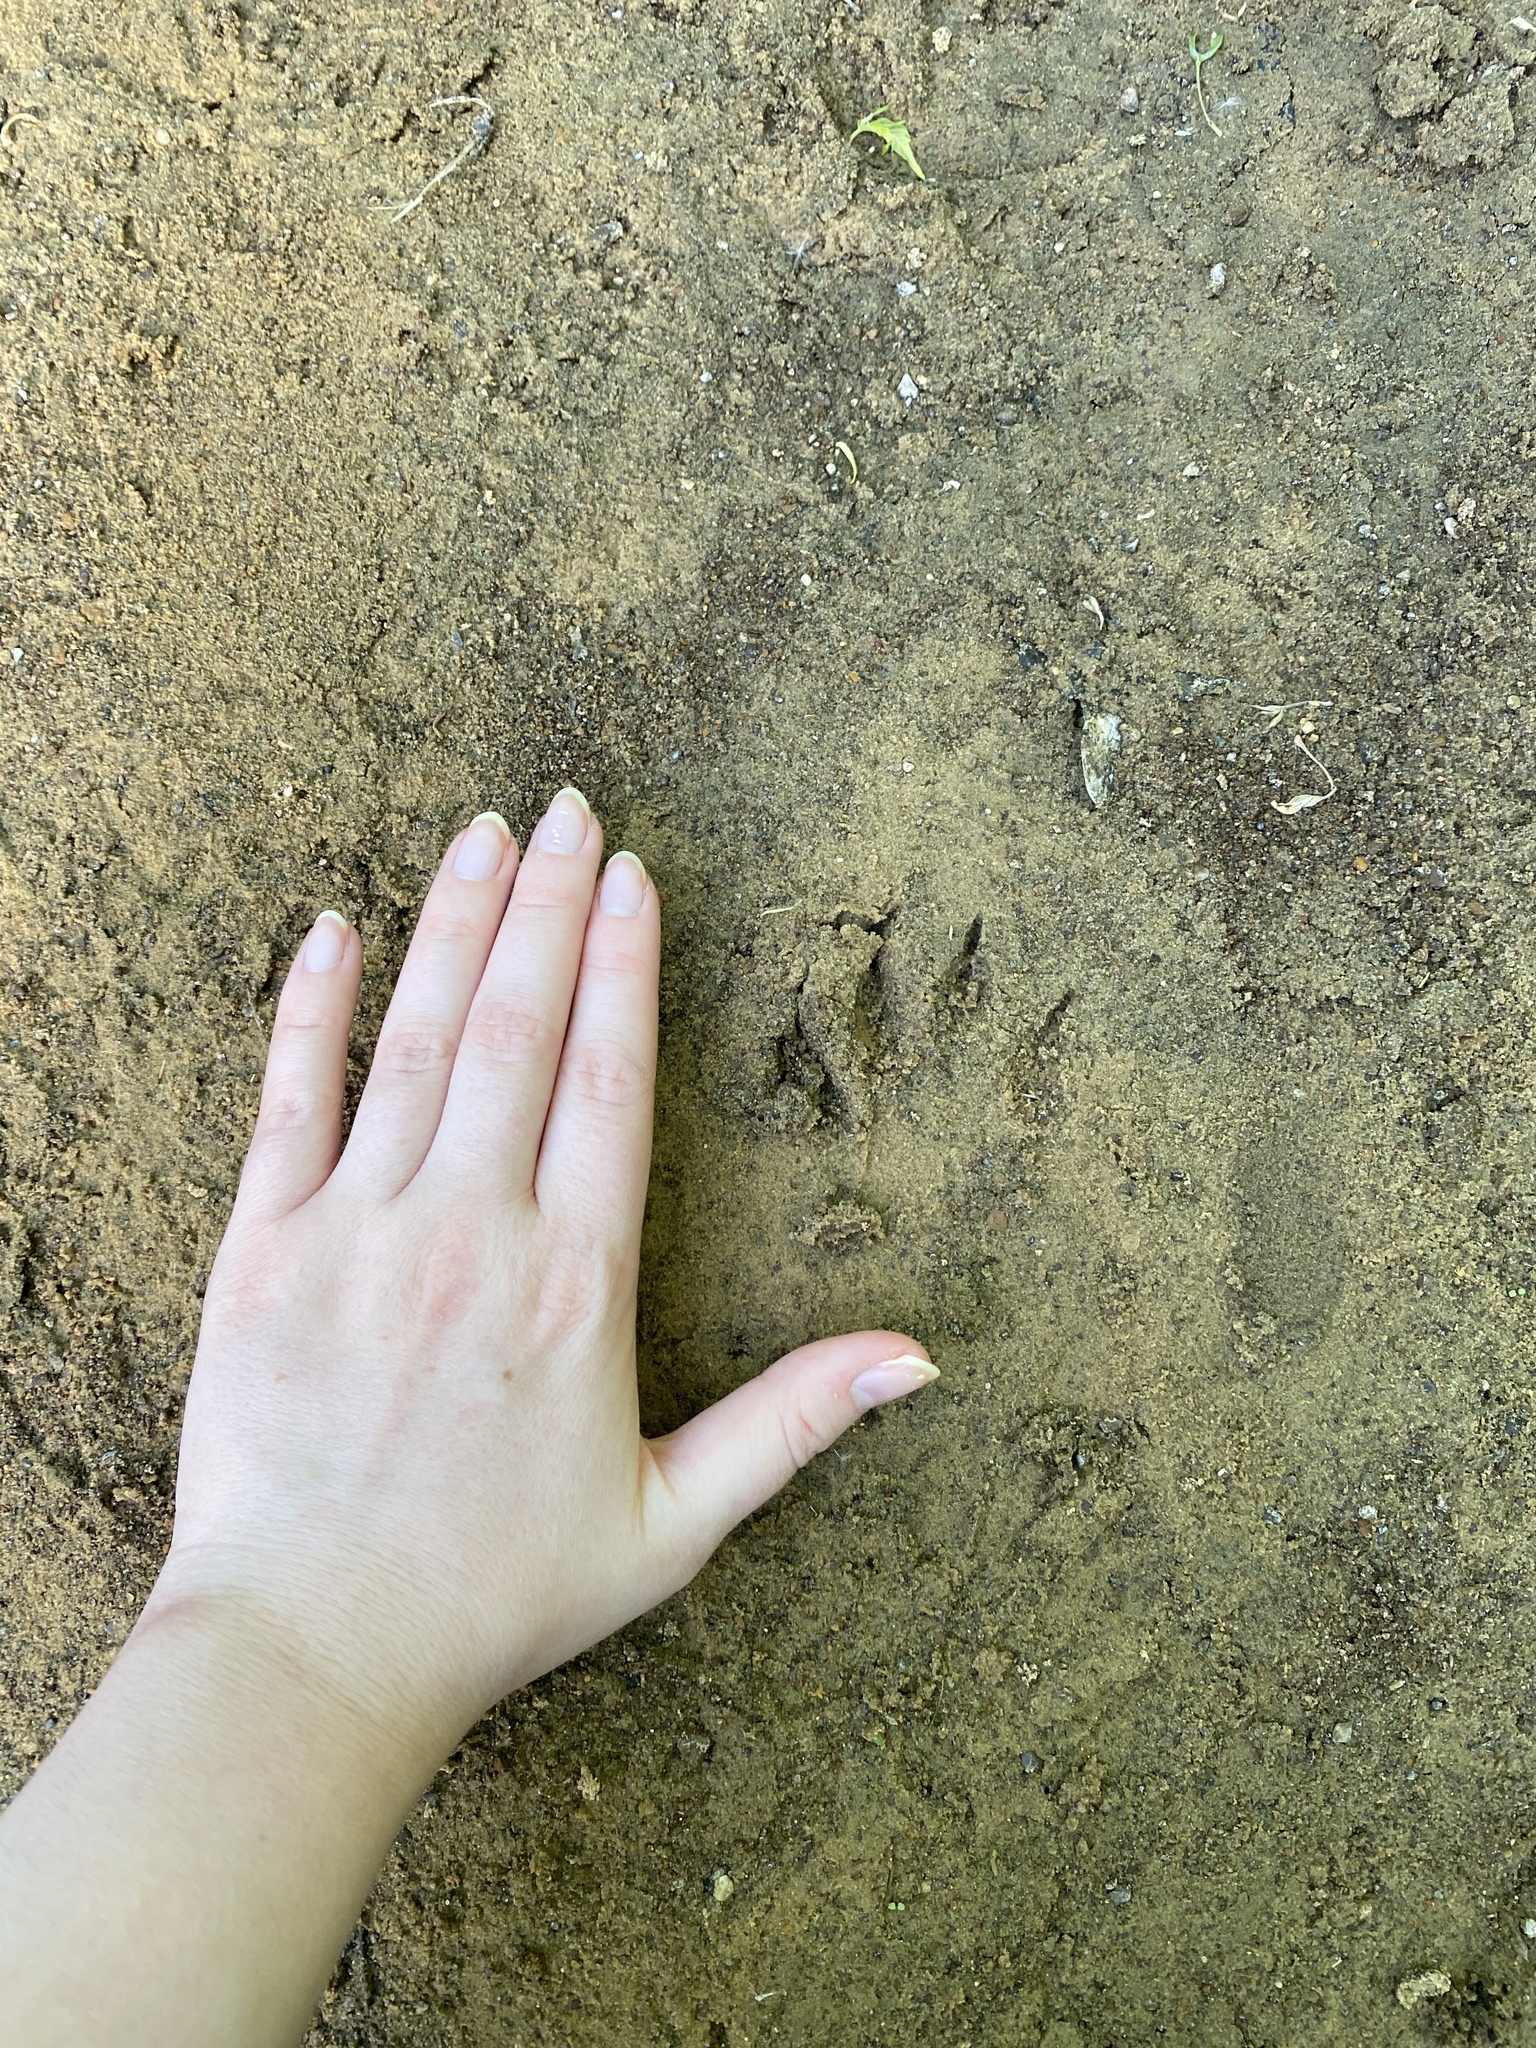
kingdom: Animalia
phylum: Chordata
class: Mammalia
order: Carnivora
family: Procyonidae
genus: Procyon
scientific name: Procyon lotor
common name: Raccoon
